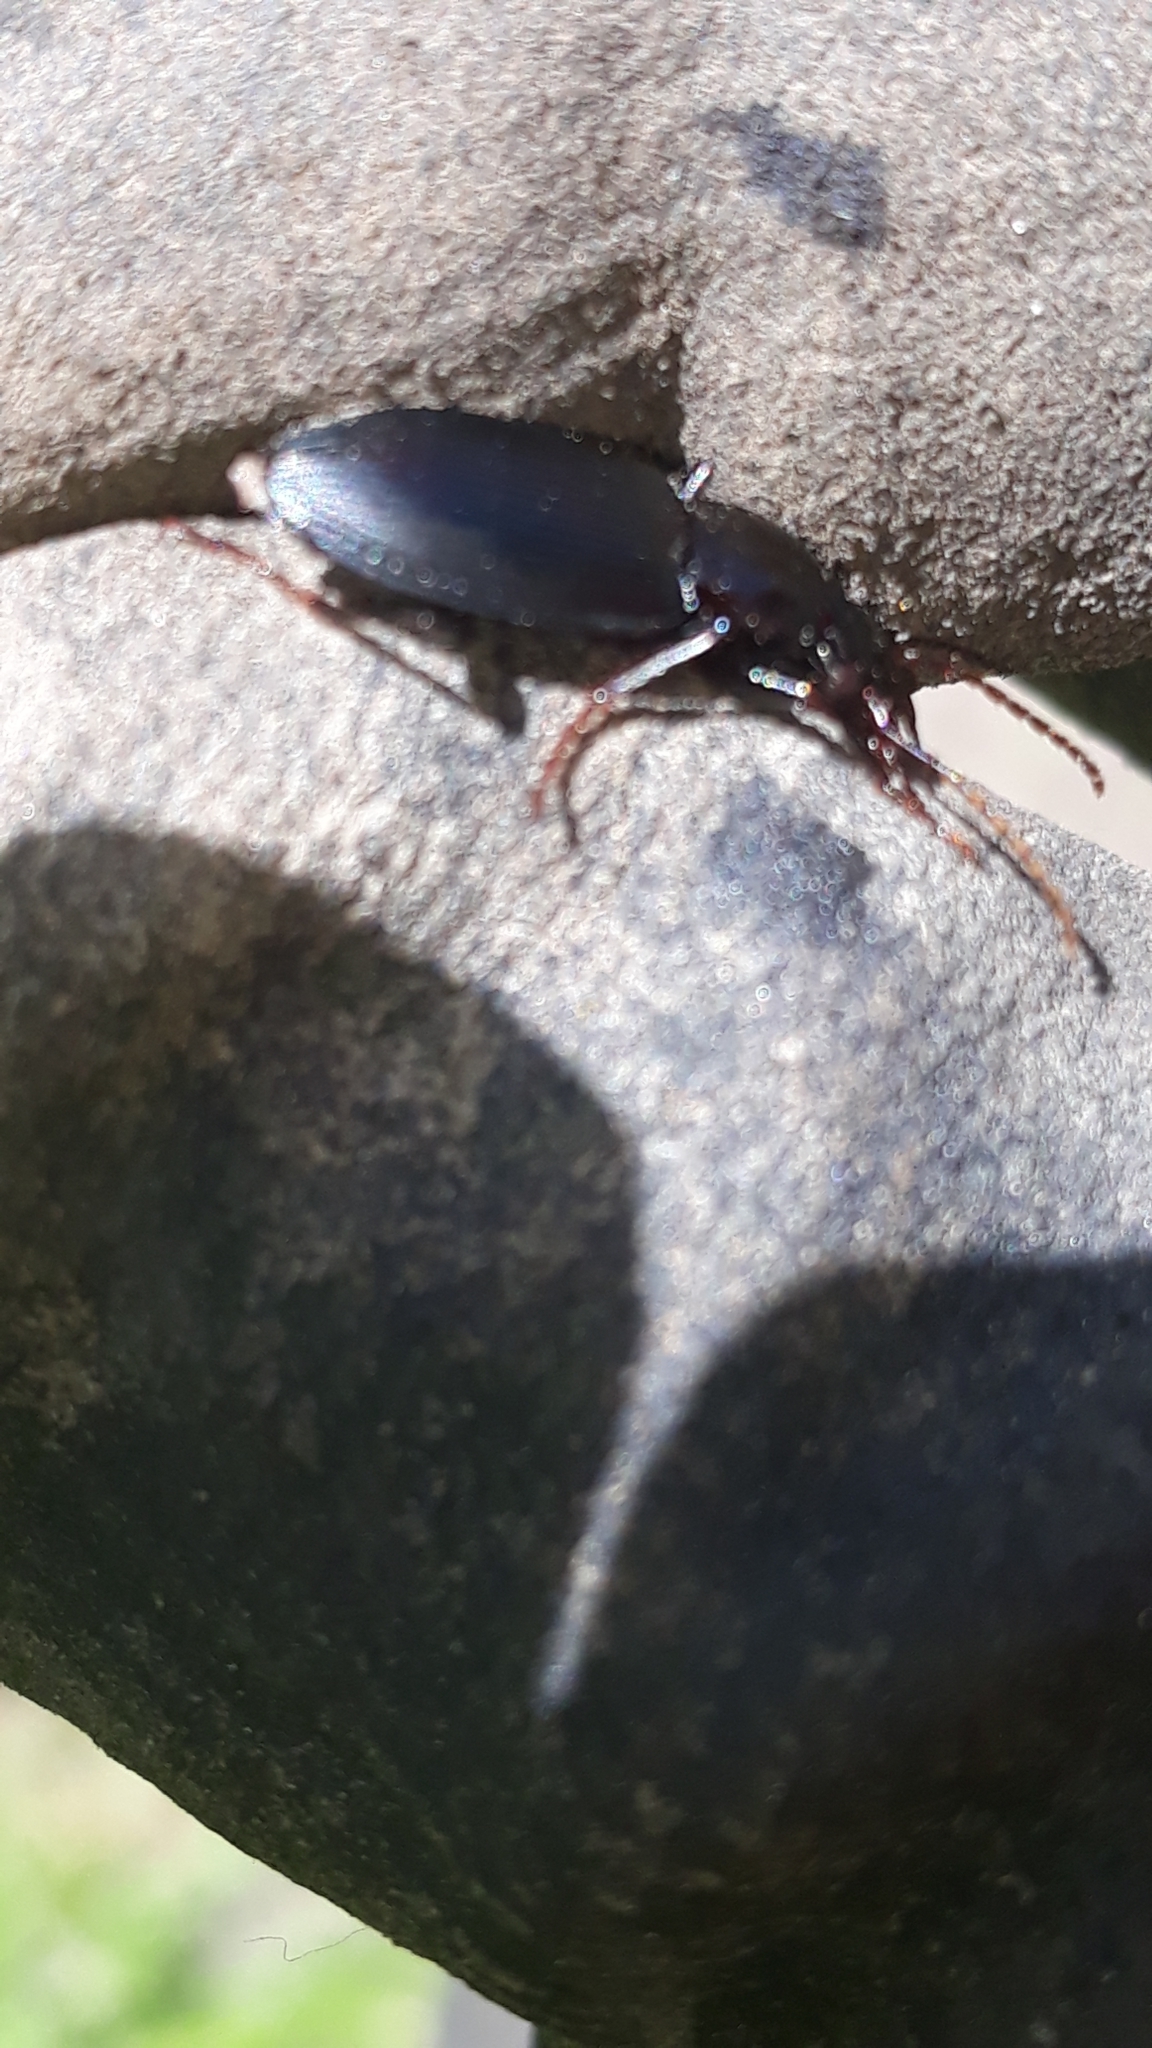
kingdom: Animalia
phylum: Arthropoda
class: Insecta
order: Coleoptera
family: Carabidae
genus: Laemostenus
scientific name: Laemostenus complanatus
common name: Cosmopolitan ground beetle
